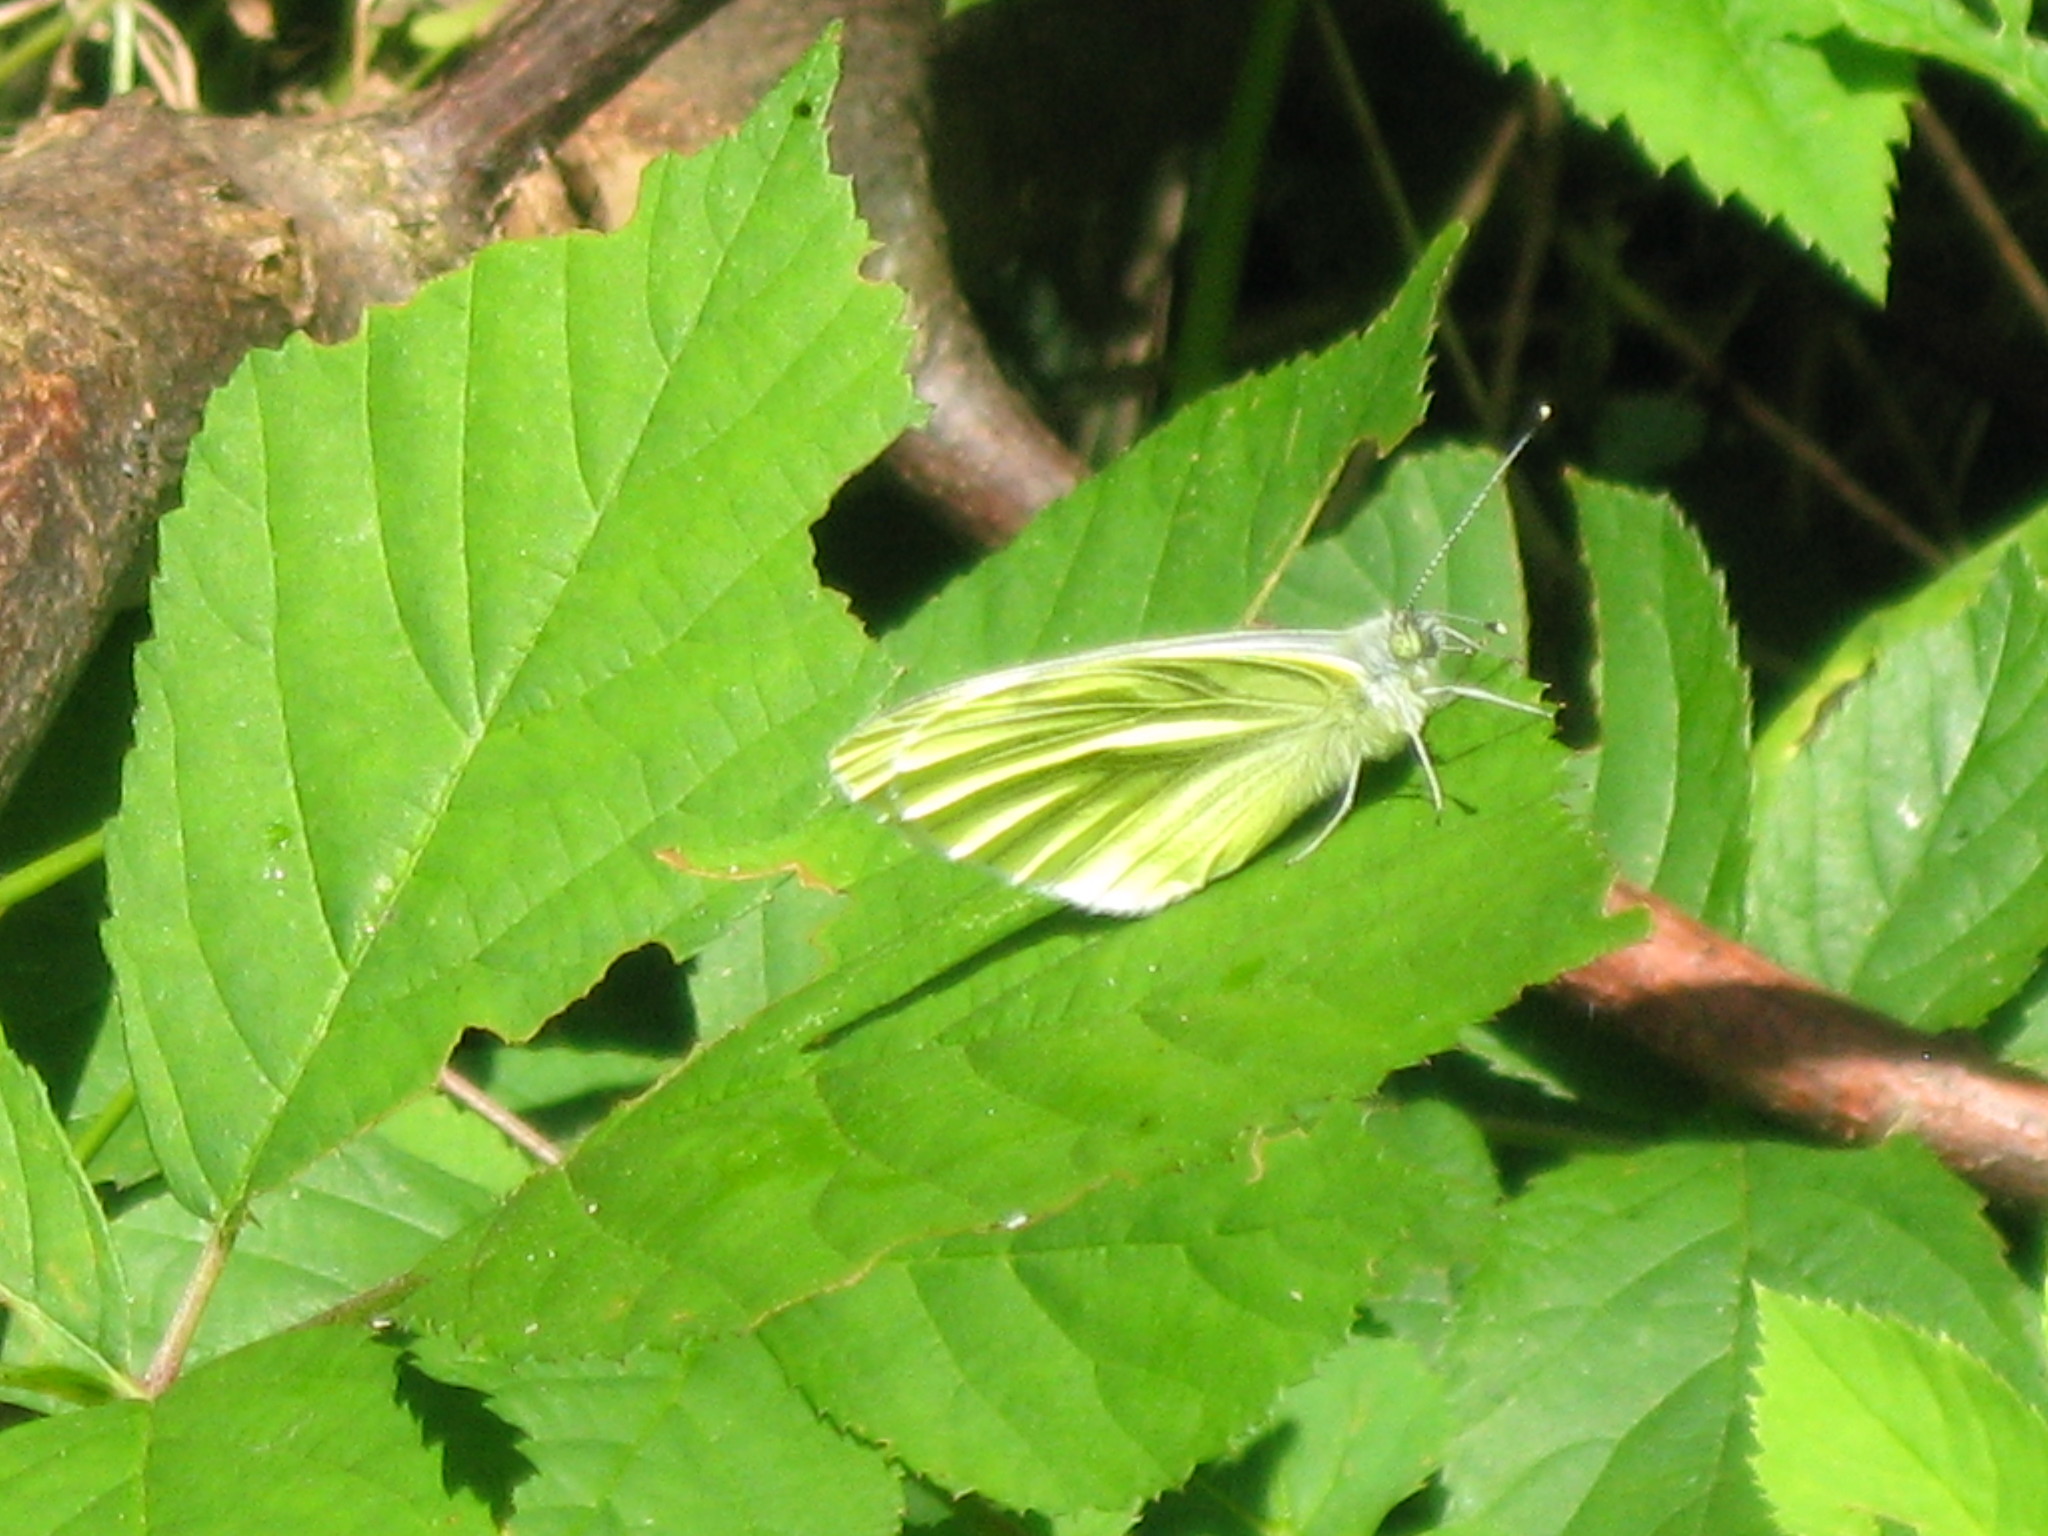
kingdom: Animalia
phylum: Arthropoda
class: Insecta
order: Lepidoptera
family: Pieridae
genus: Pieris
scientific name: Pieris napi
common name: Green-veined white
